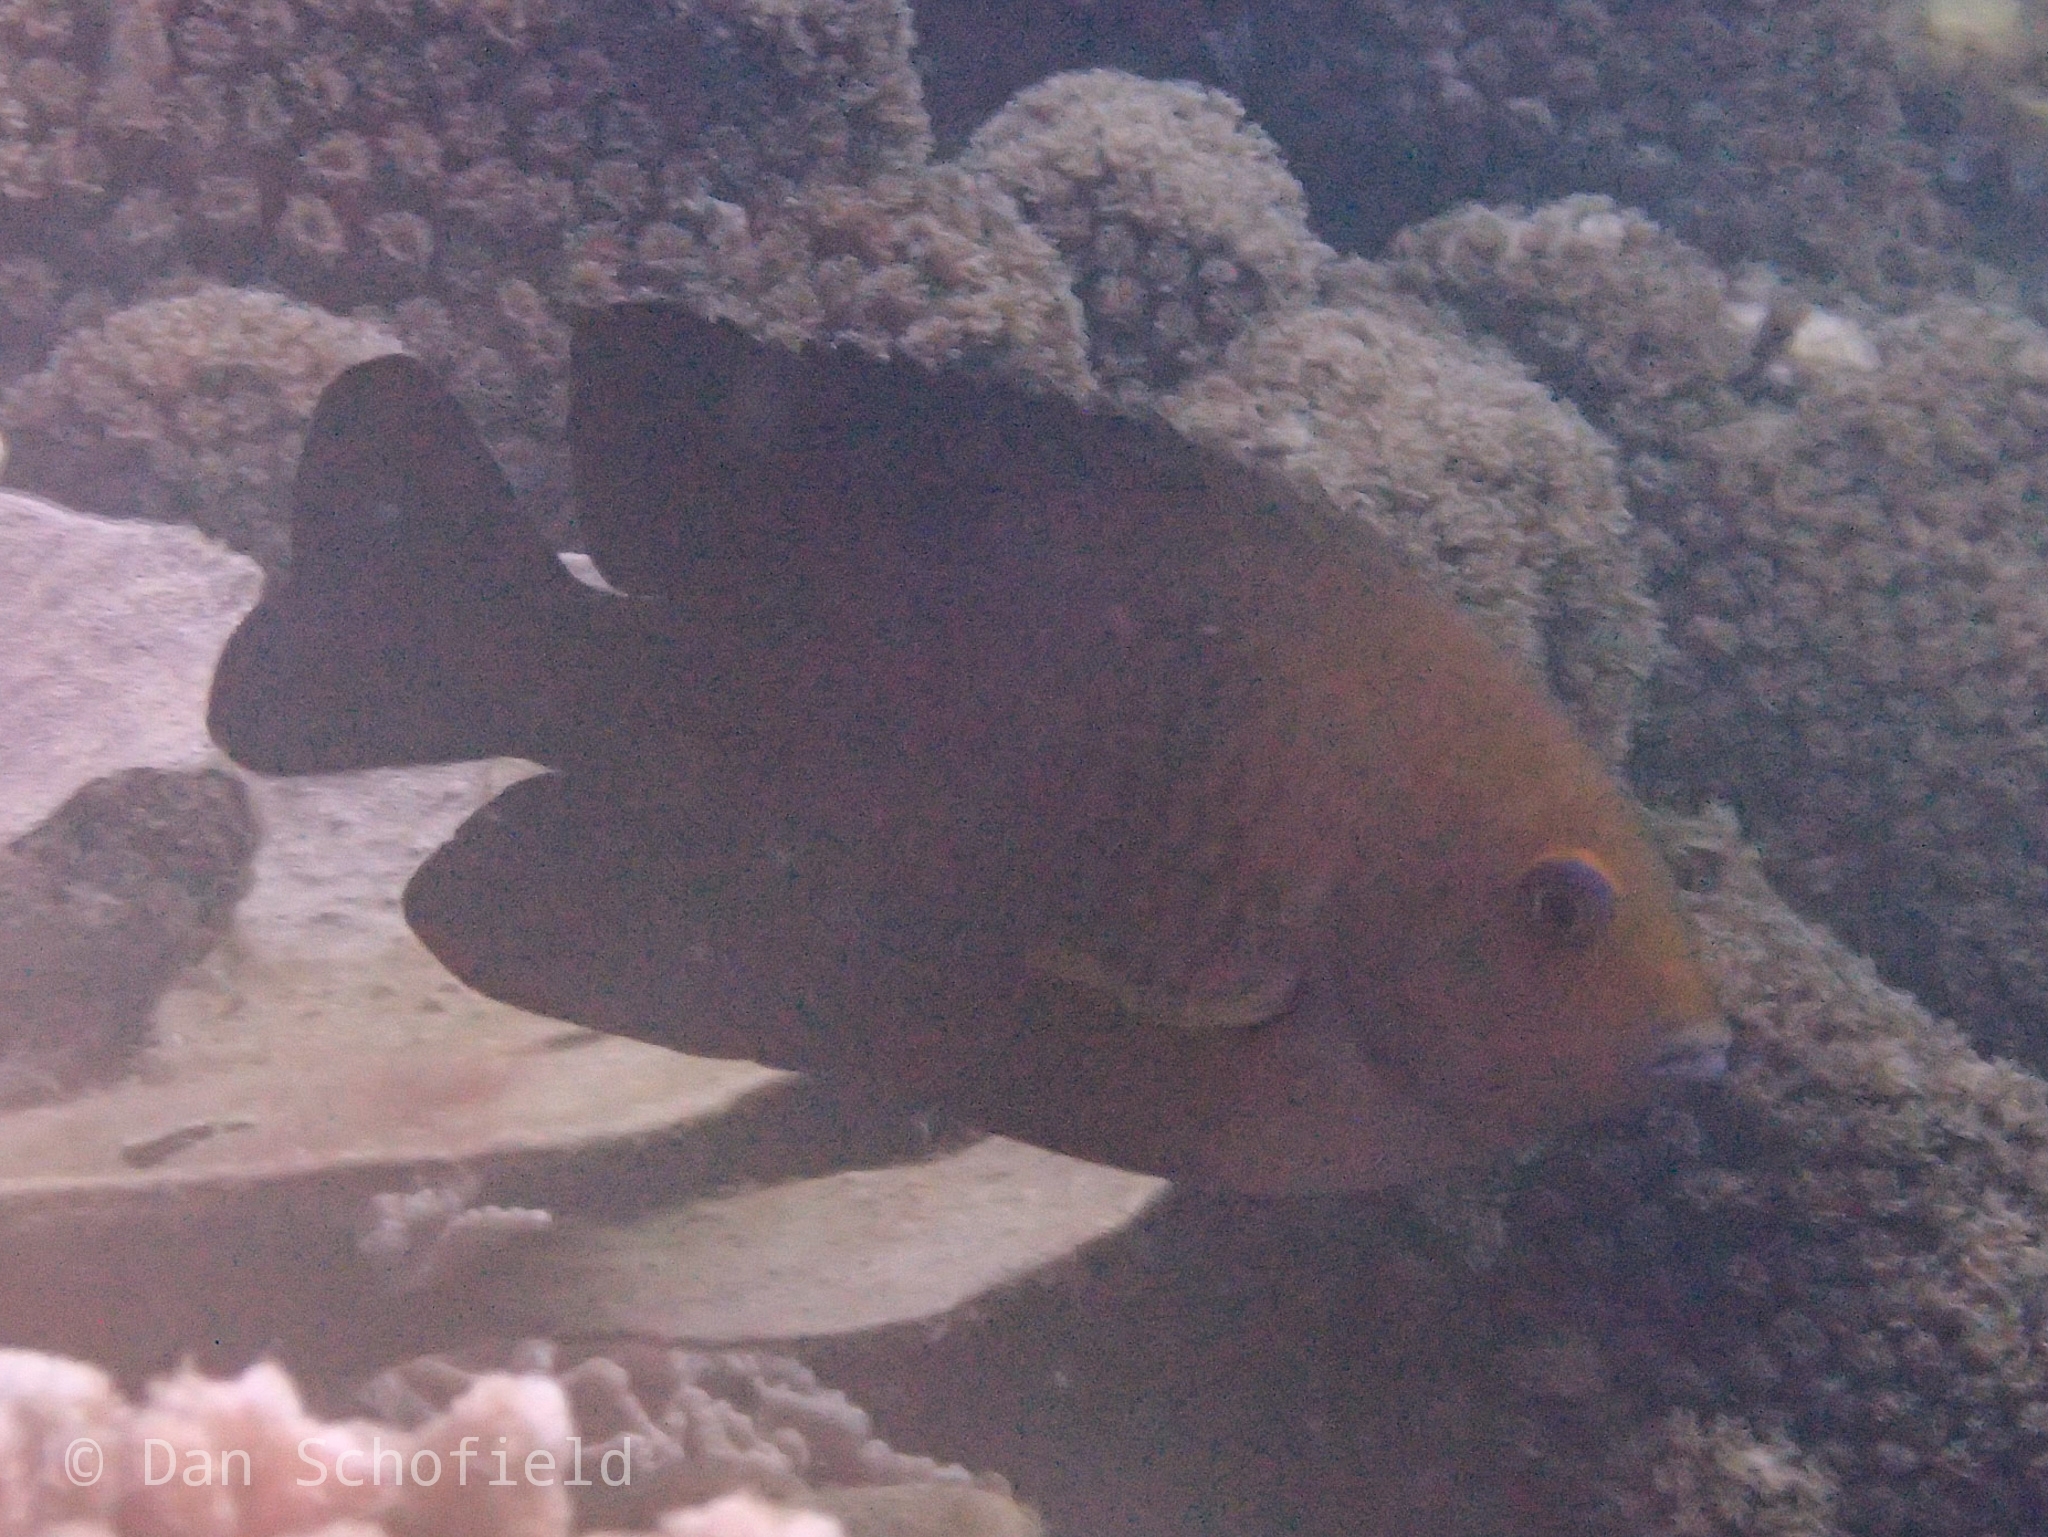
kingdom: Animalia
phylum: Chordata
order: Perciformes
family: Pomacentridae
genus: Hemiglyphidodon
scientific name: Hemiglyphidodon plagiometopon
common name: Lagoon damsel
